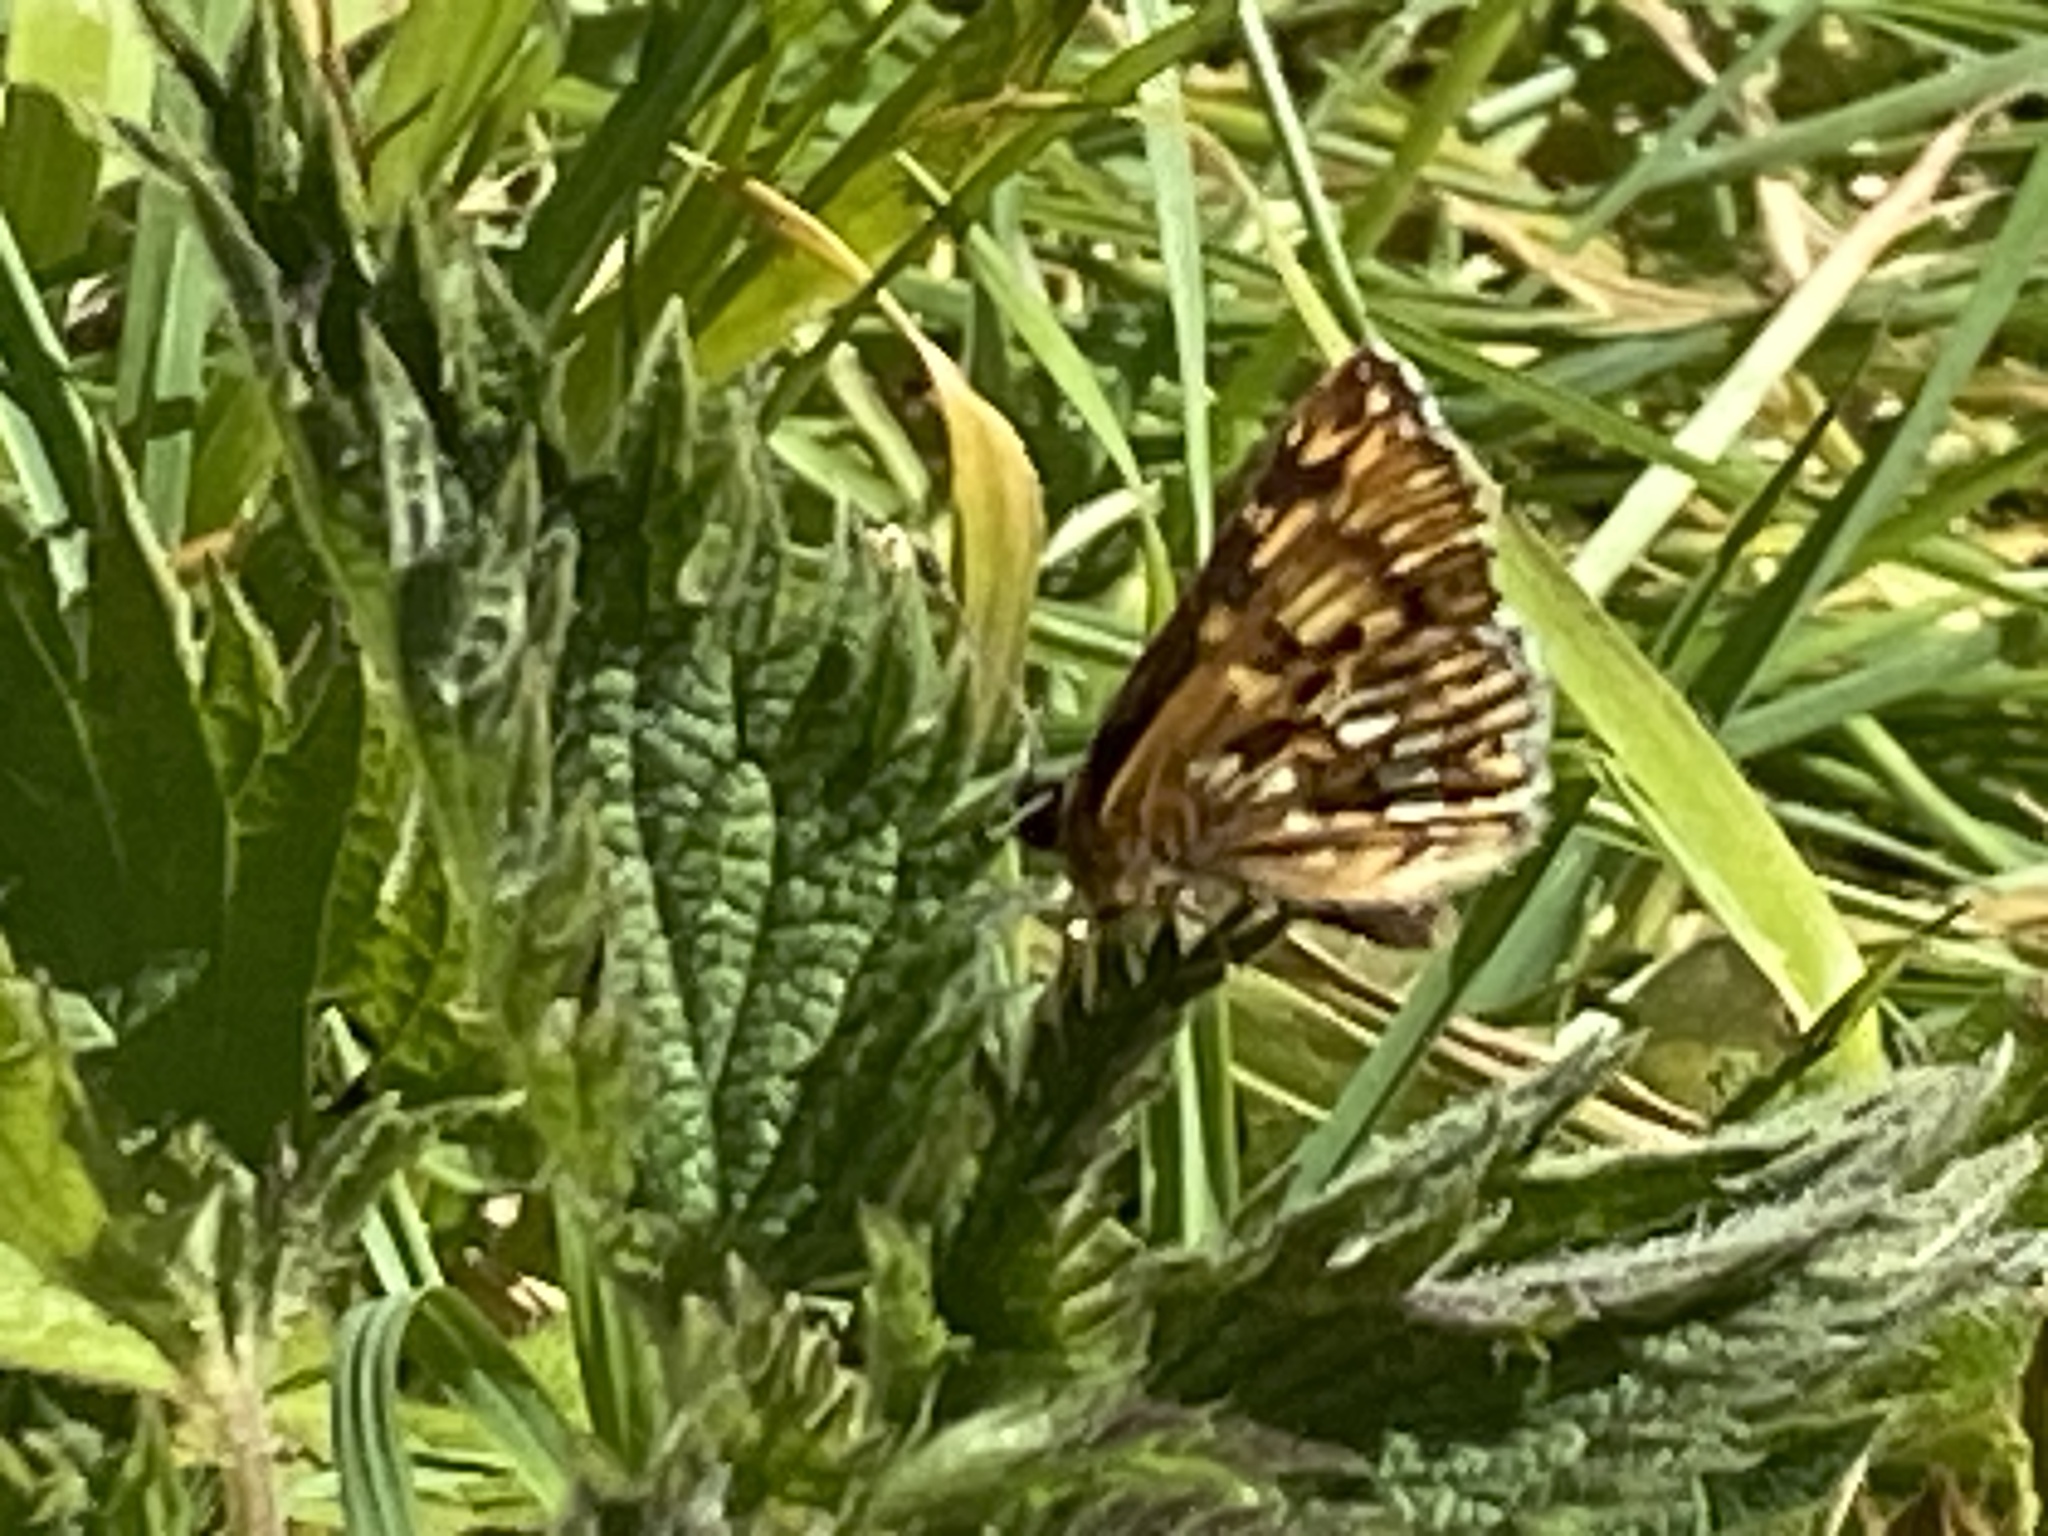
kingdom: Animalia
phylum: Arthropoda
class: Insecta
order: Lepidoptera
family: Riodinidae
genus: Hamearis
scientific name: Hamearis lucina
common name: Duke of burgundy fritillary
